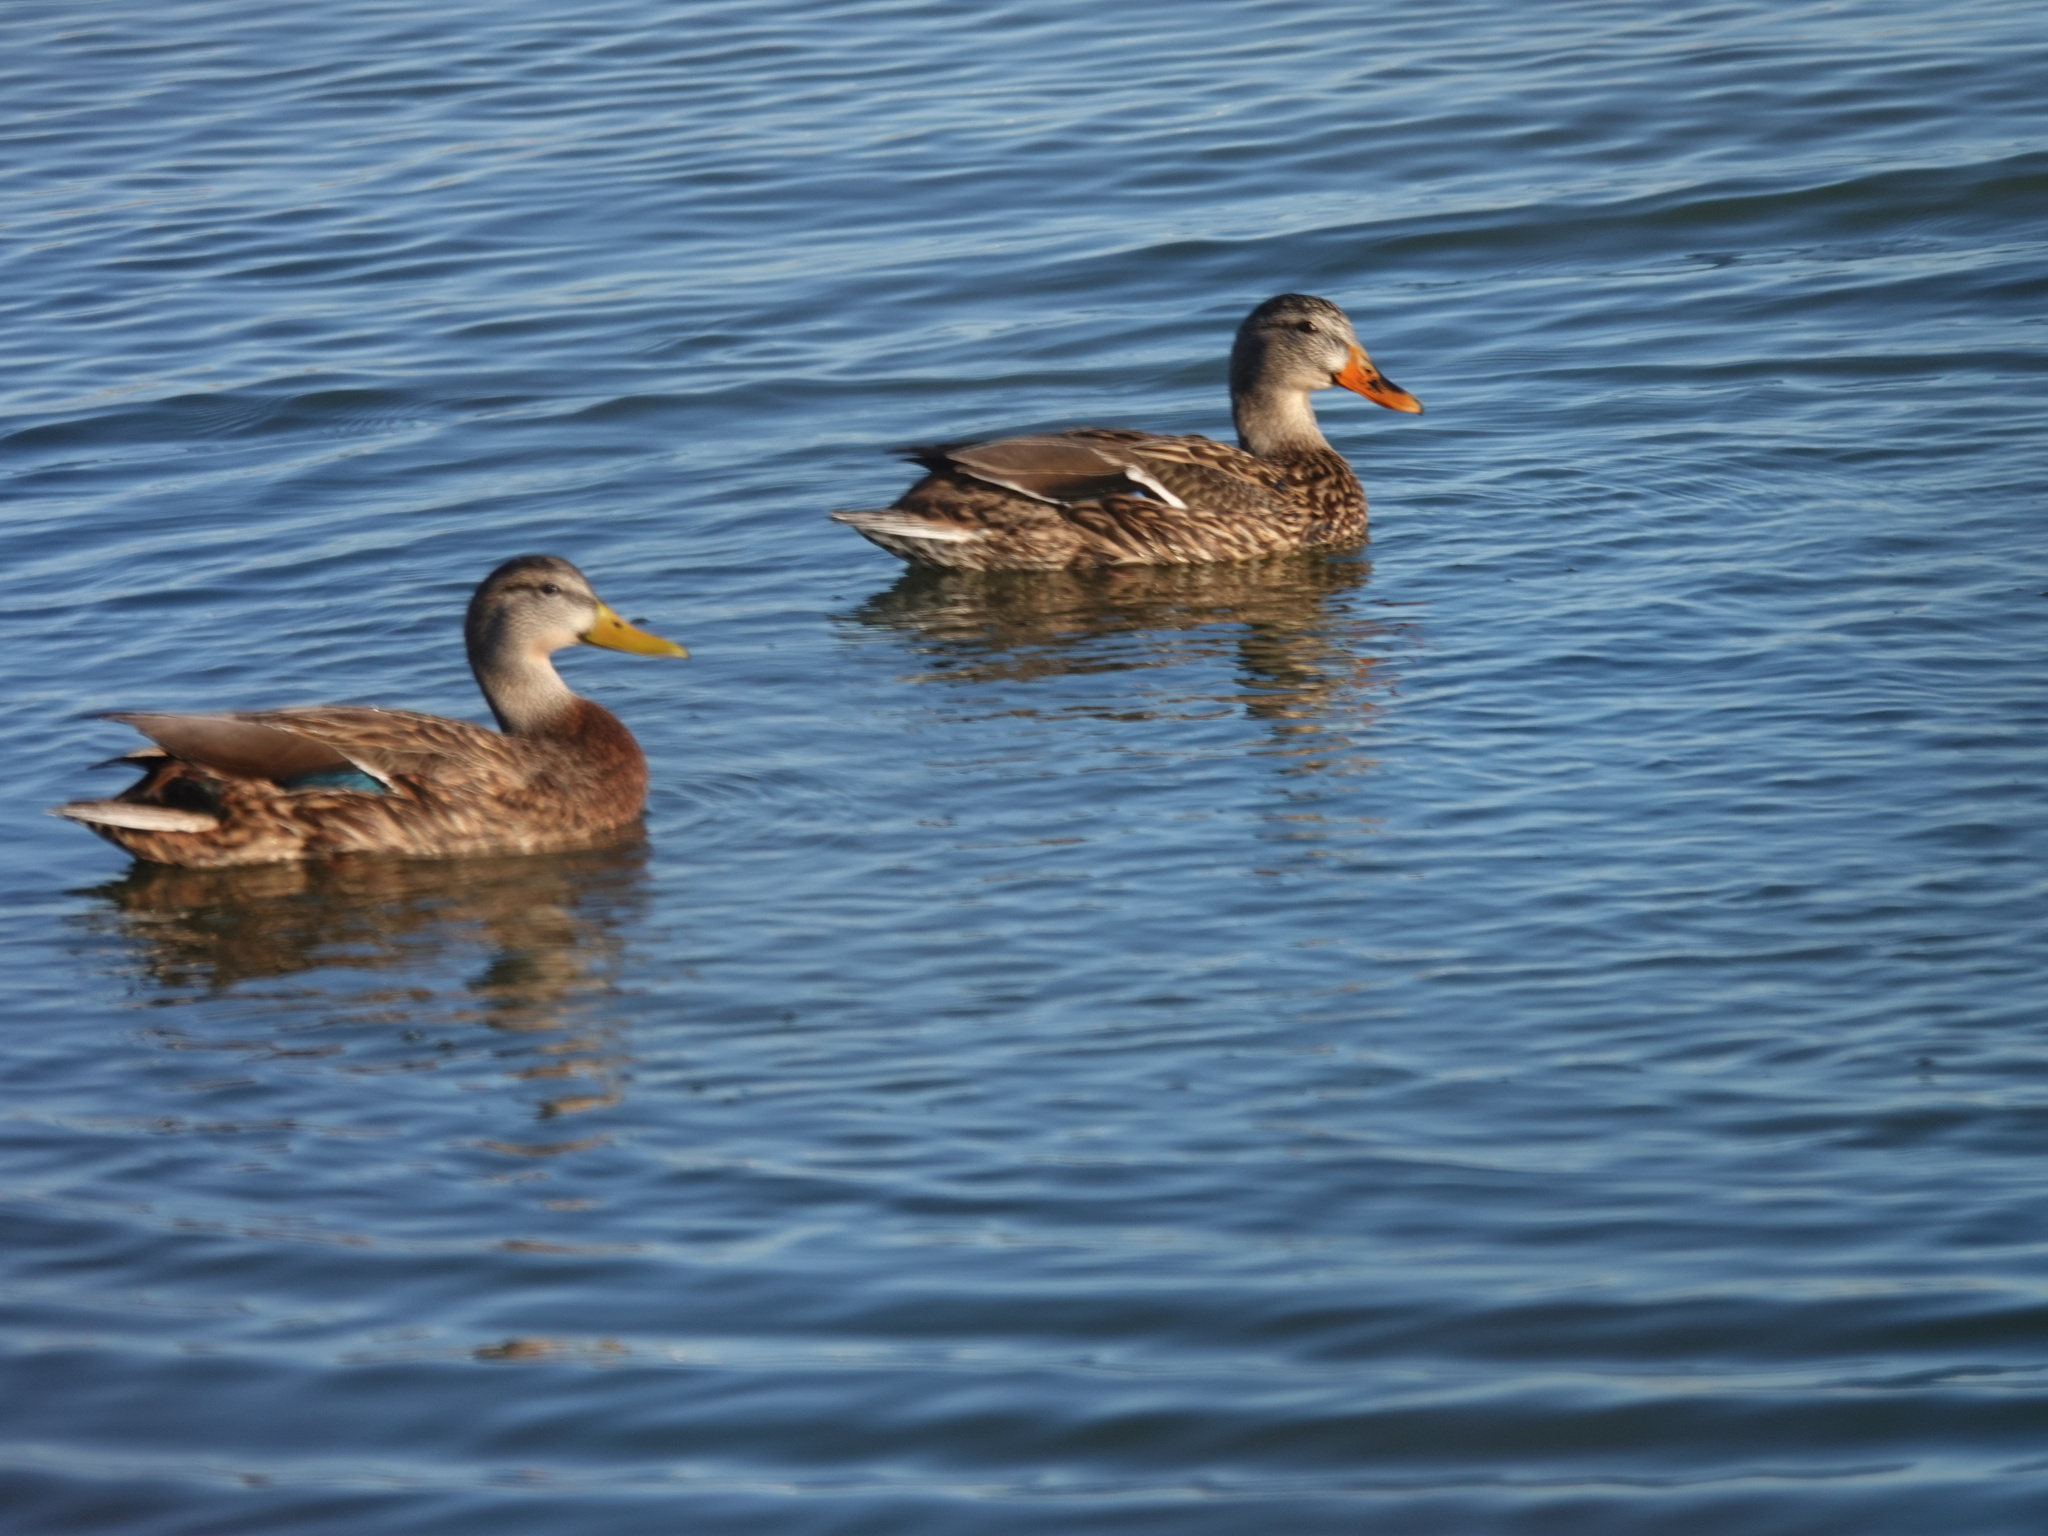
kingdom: Animalia
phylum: Chordata
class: Aves
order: Anseriformes
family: Anatidae
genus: Anas
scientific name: Anas diazi
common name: Mexican duck
